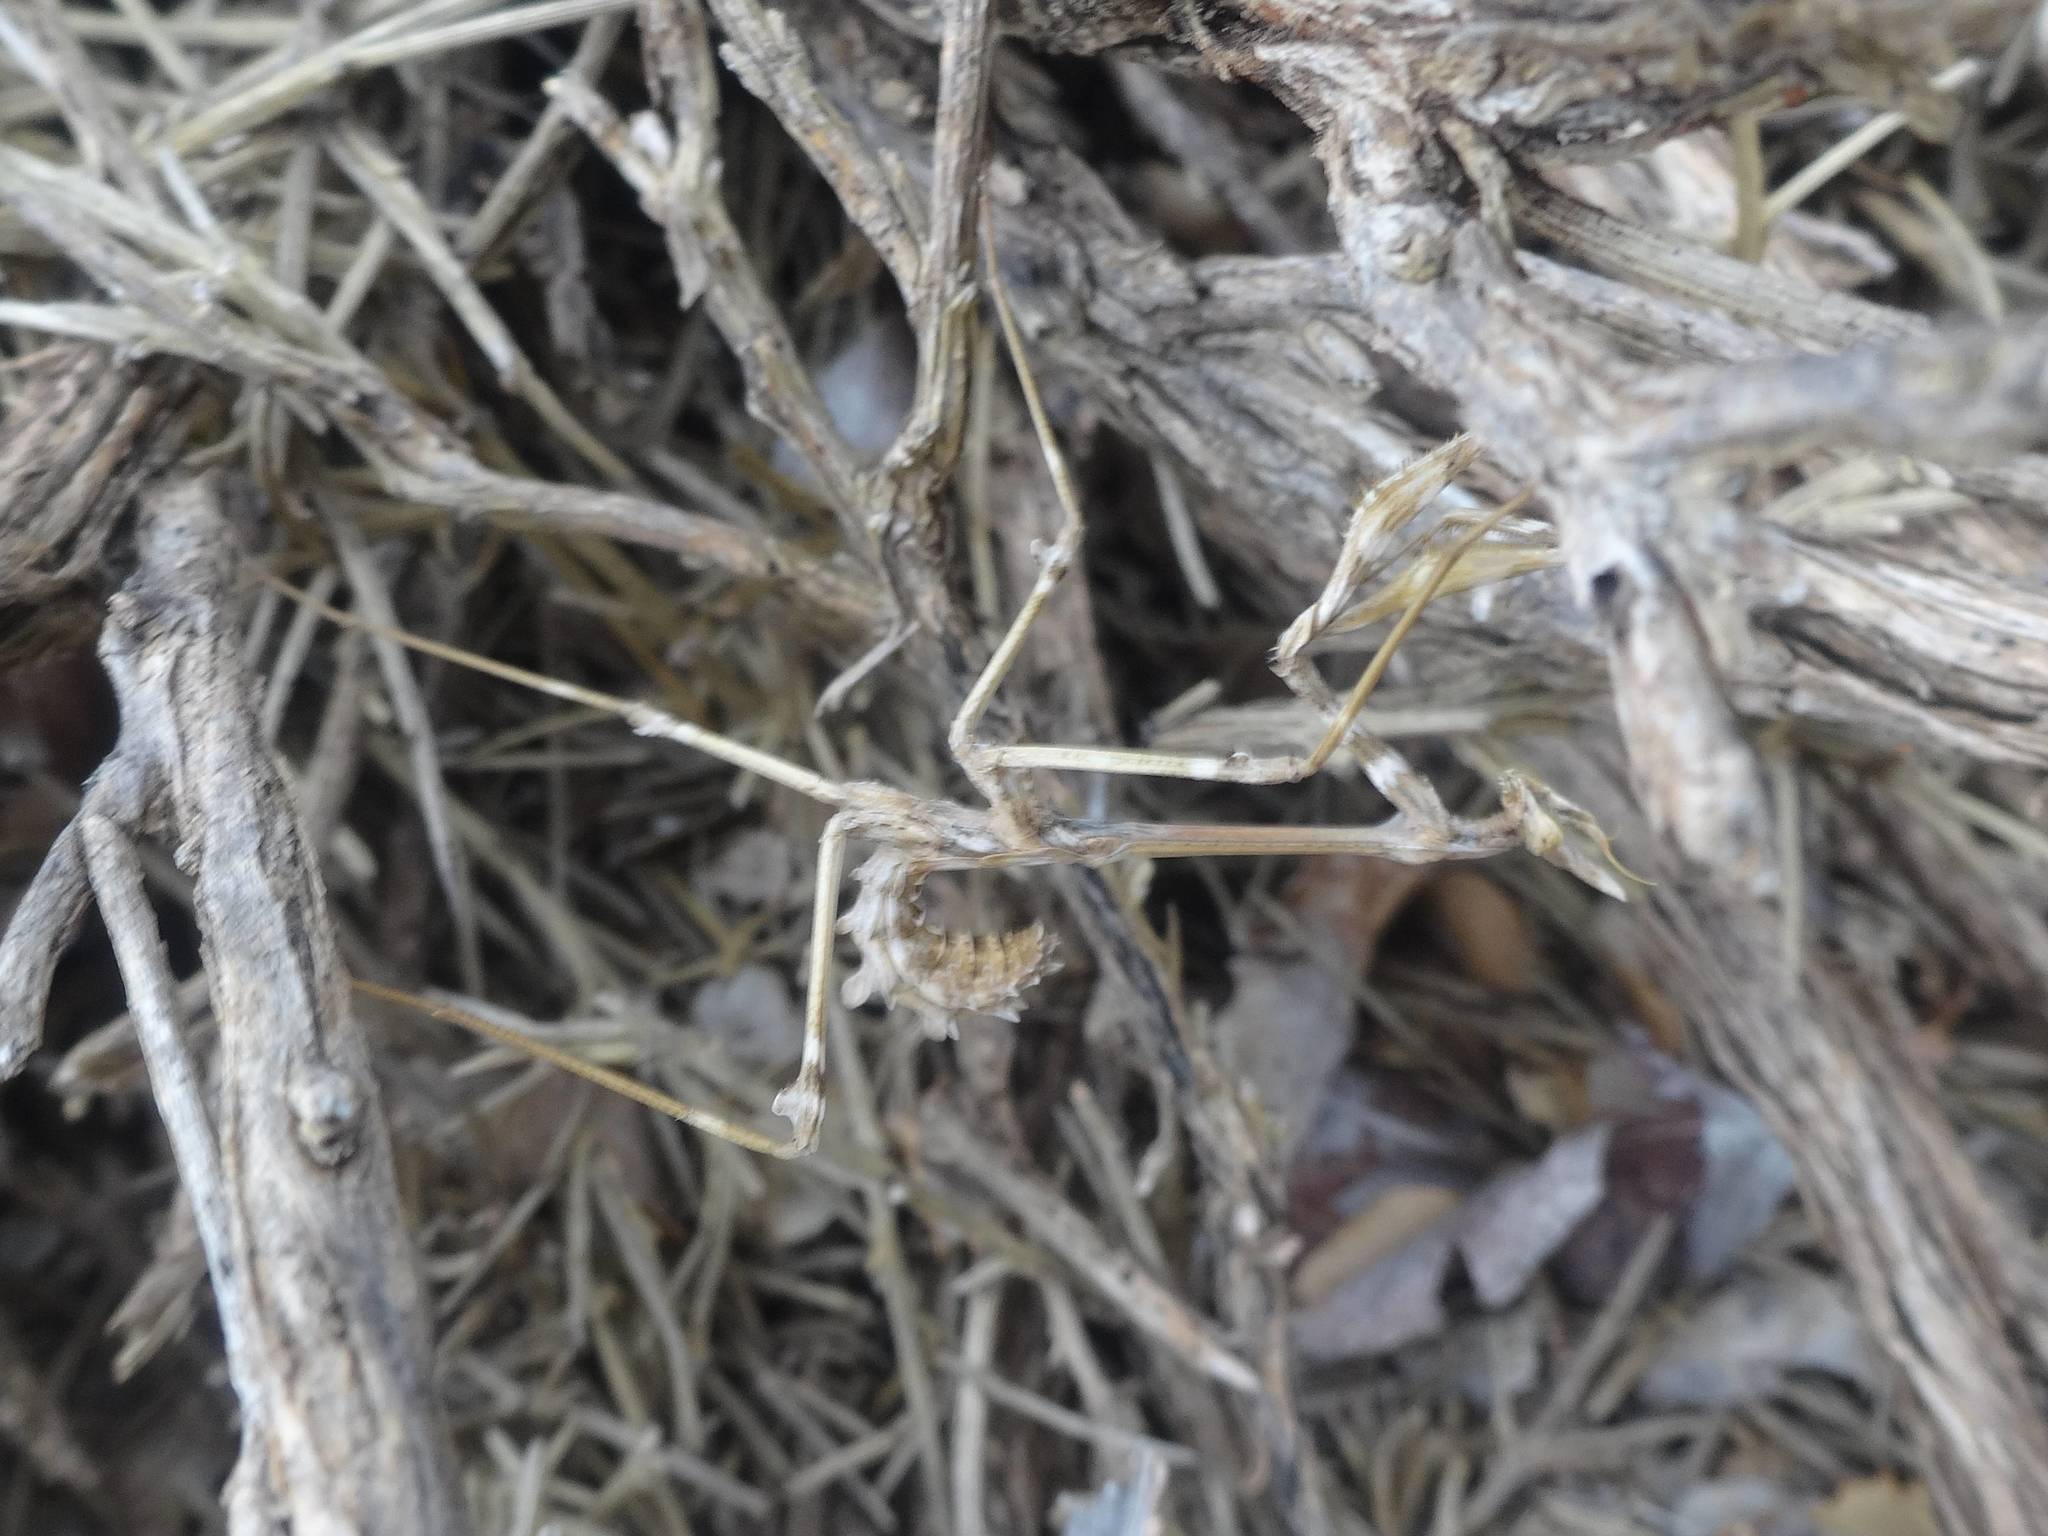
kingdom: Animalia
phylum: Arthropoda
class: Insecta
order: Mantodea
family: Empusidae
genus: Empusa
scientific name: Empusa fasciata
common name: Devil's mare
